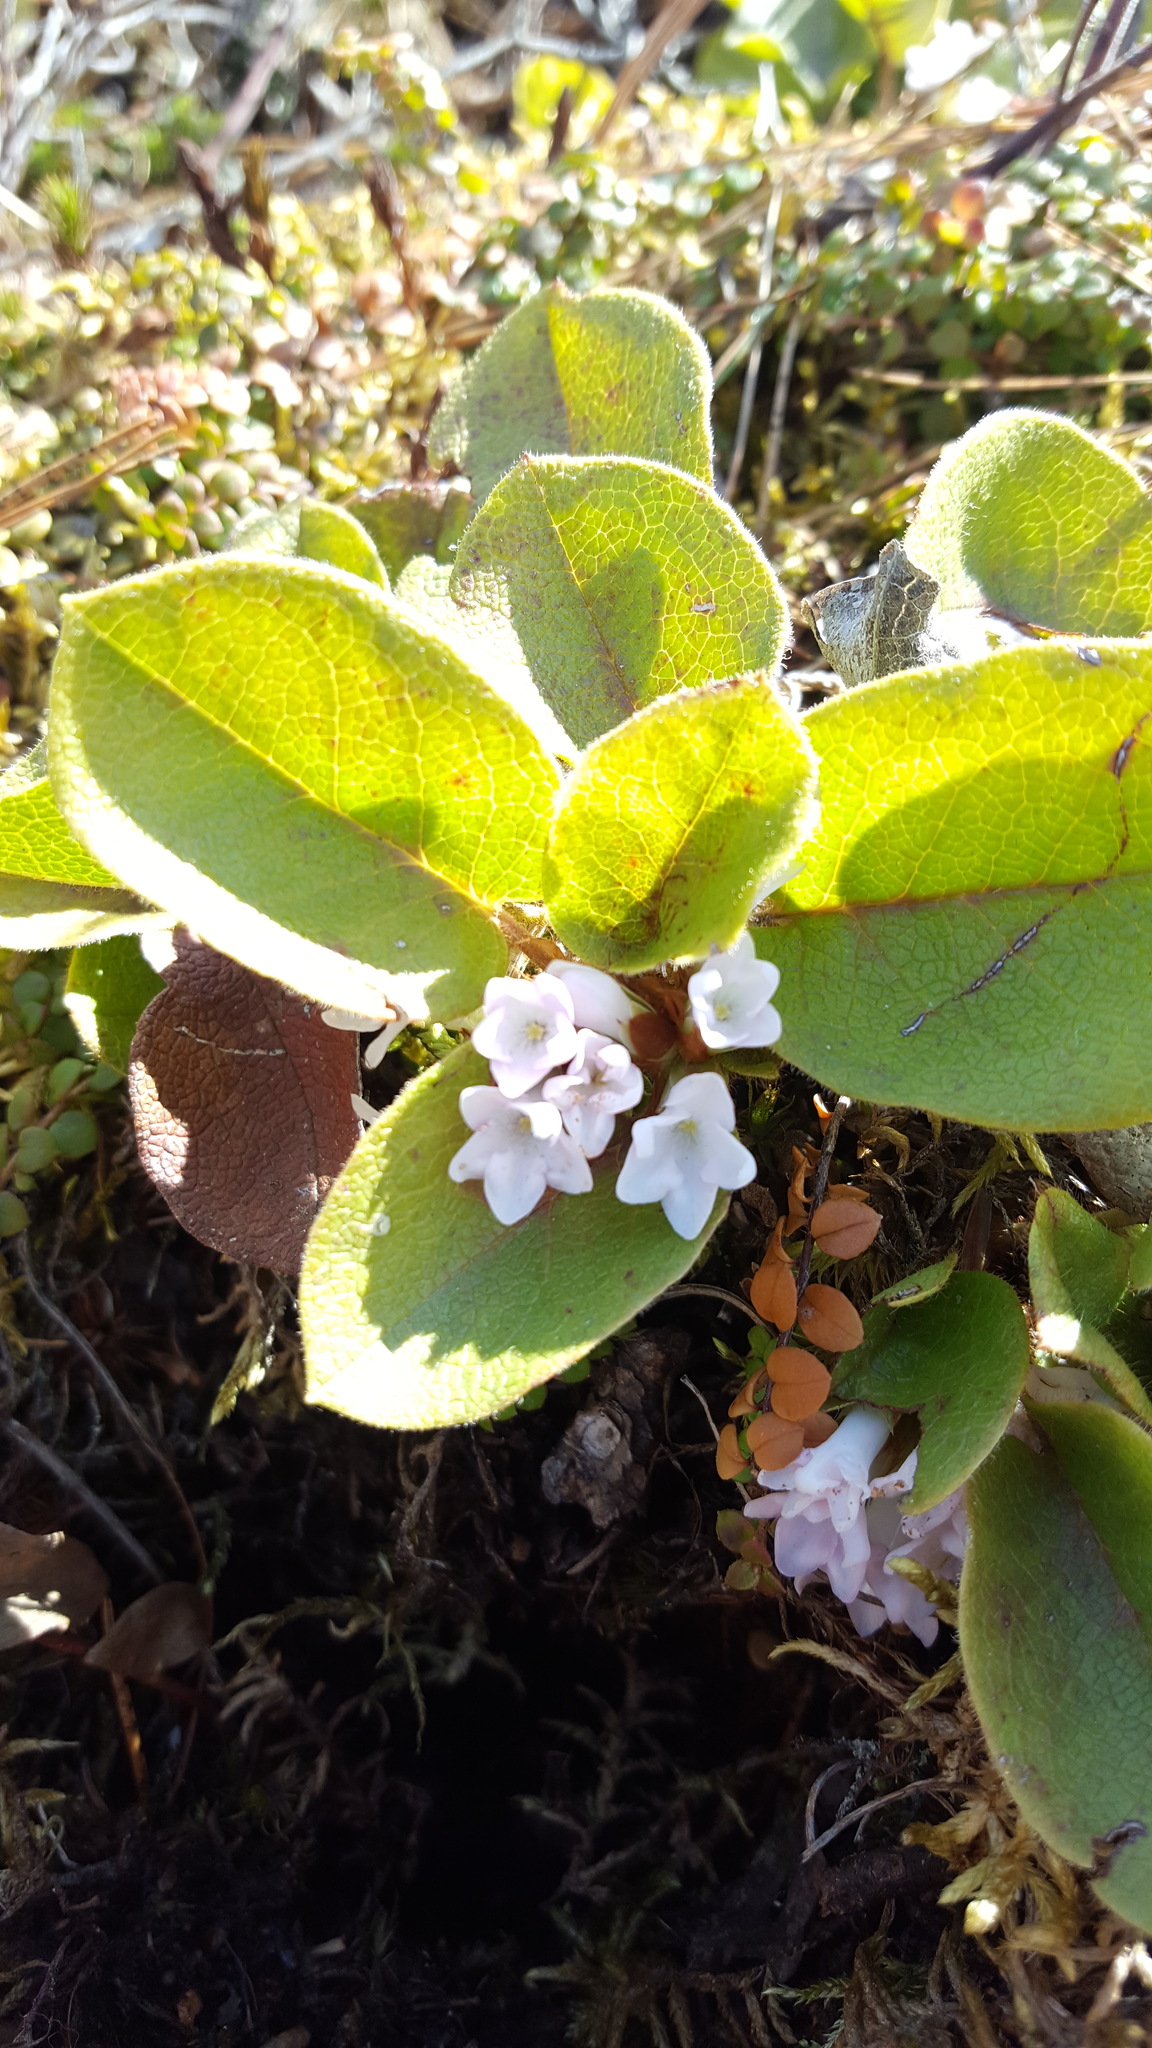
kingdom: Plantae
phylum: Tracheophyta
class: Magnoliopsida
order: Ericales
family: Ericaceae
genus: Epigaea
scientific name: Epigaea repens
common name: Gravelroot
